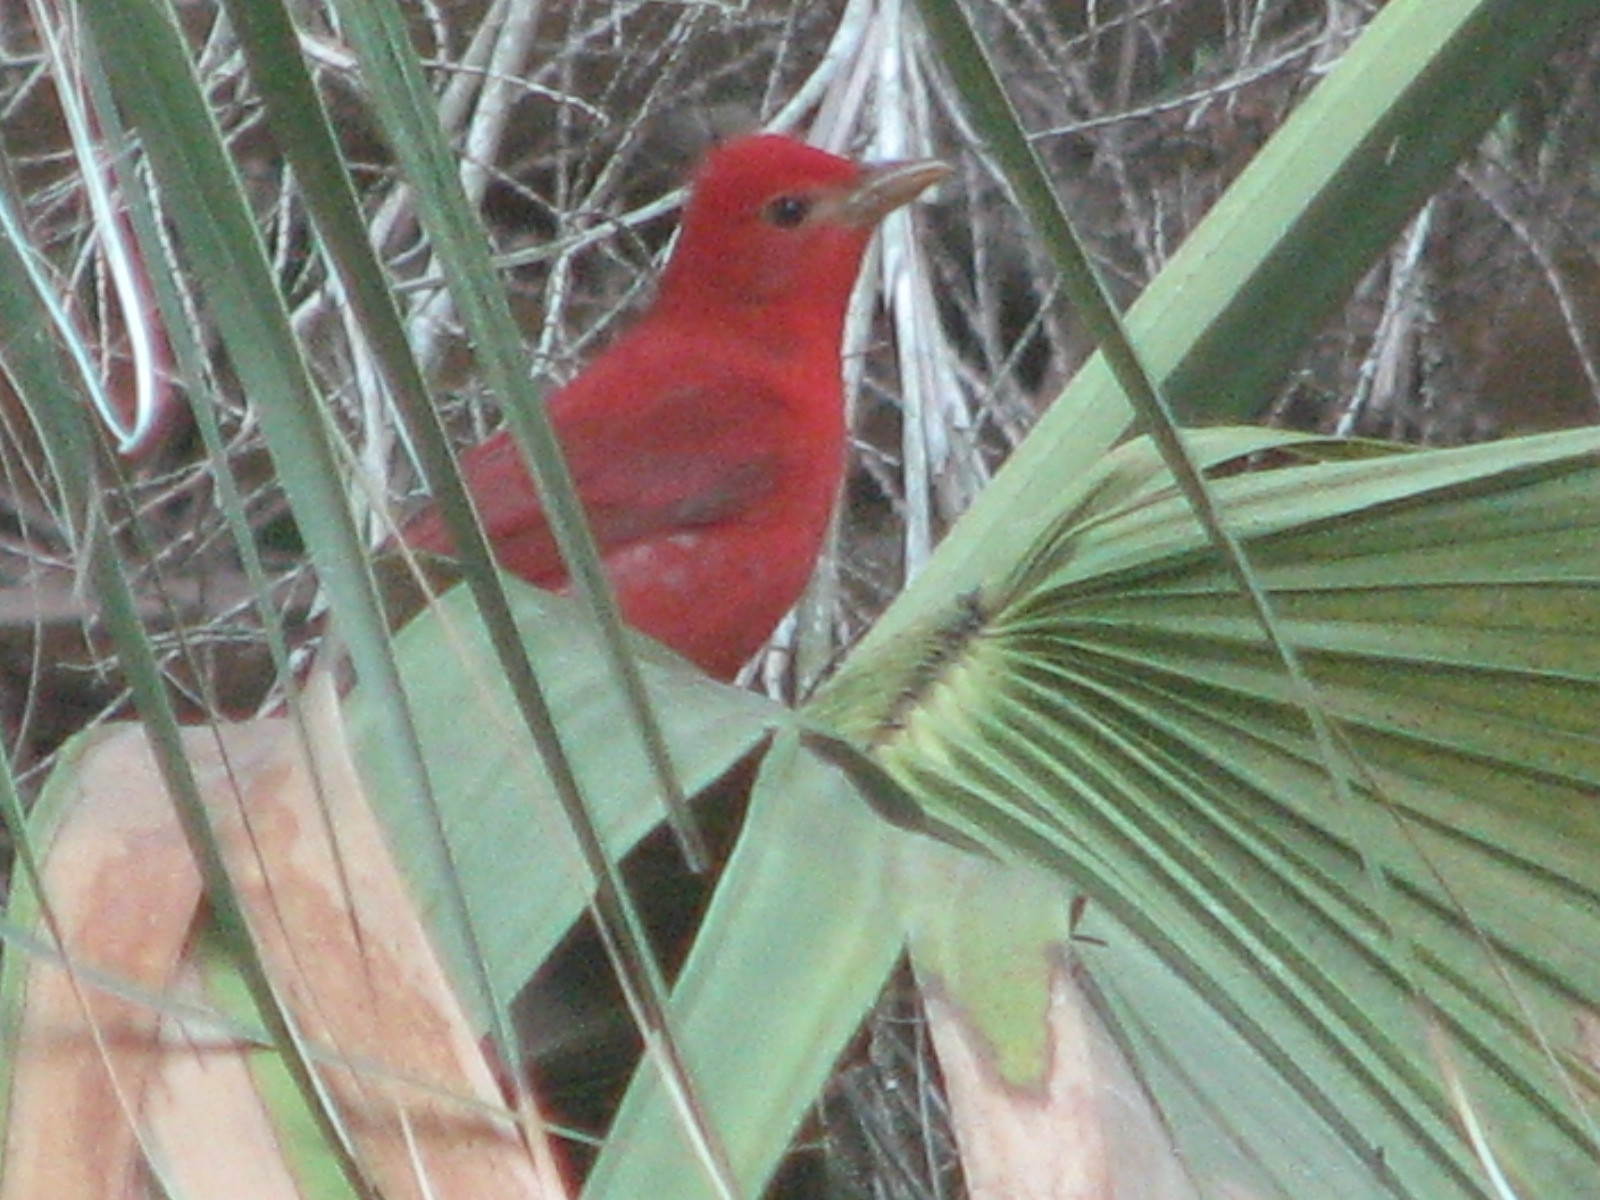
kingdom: Animalia
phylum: Chordata
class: Aves
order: Passeriformes
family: Cardinalidae
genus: Piranga
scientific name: Piranga rubra
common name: Summer tanager
